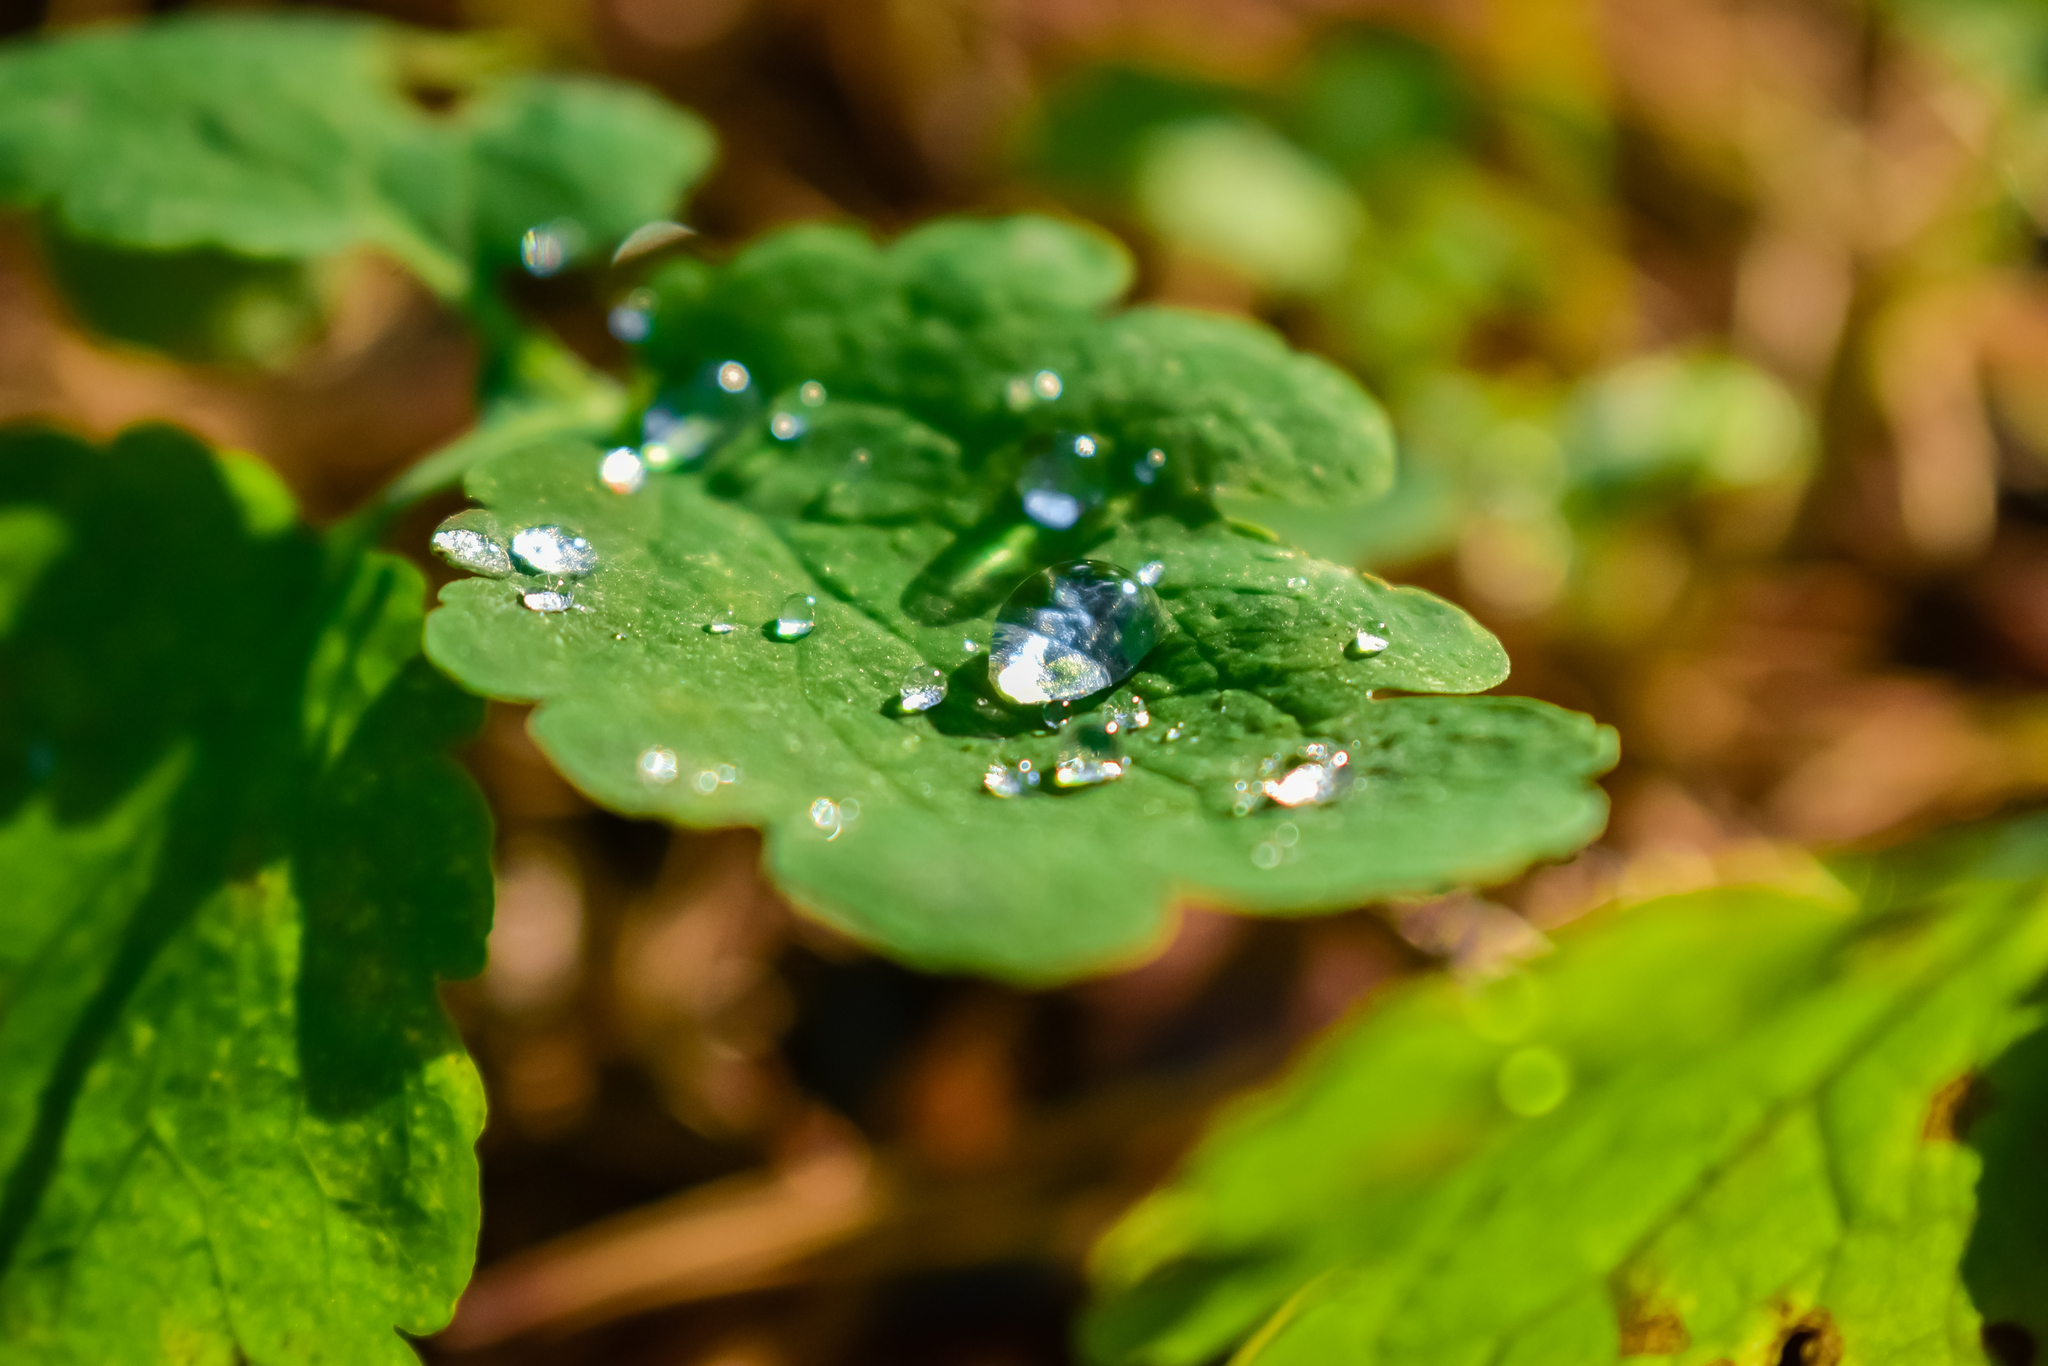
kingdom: Plantae
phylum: Tracheophyta
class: Magnoliopsida
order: Ranunculales
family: Papaveraceae
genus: Chelidonium
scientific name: Chelidonium majus
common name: Greater celandine
